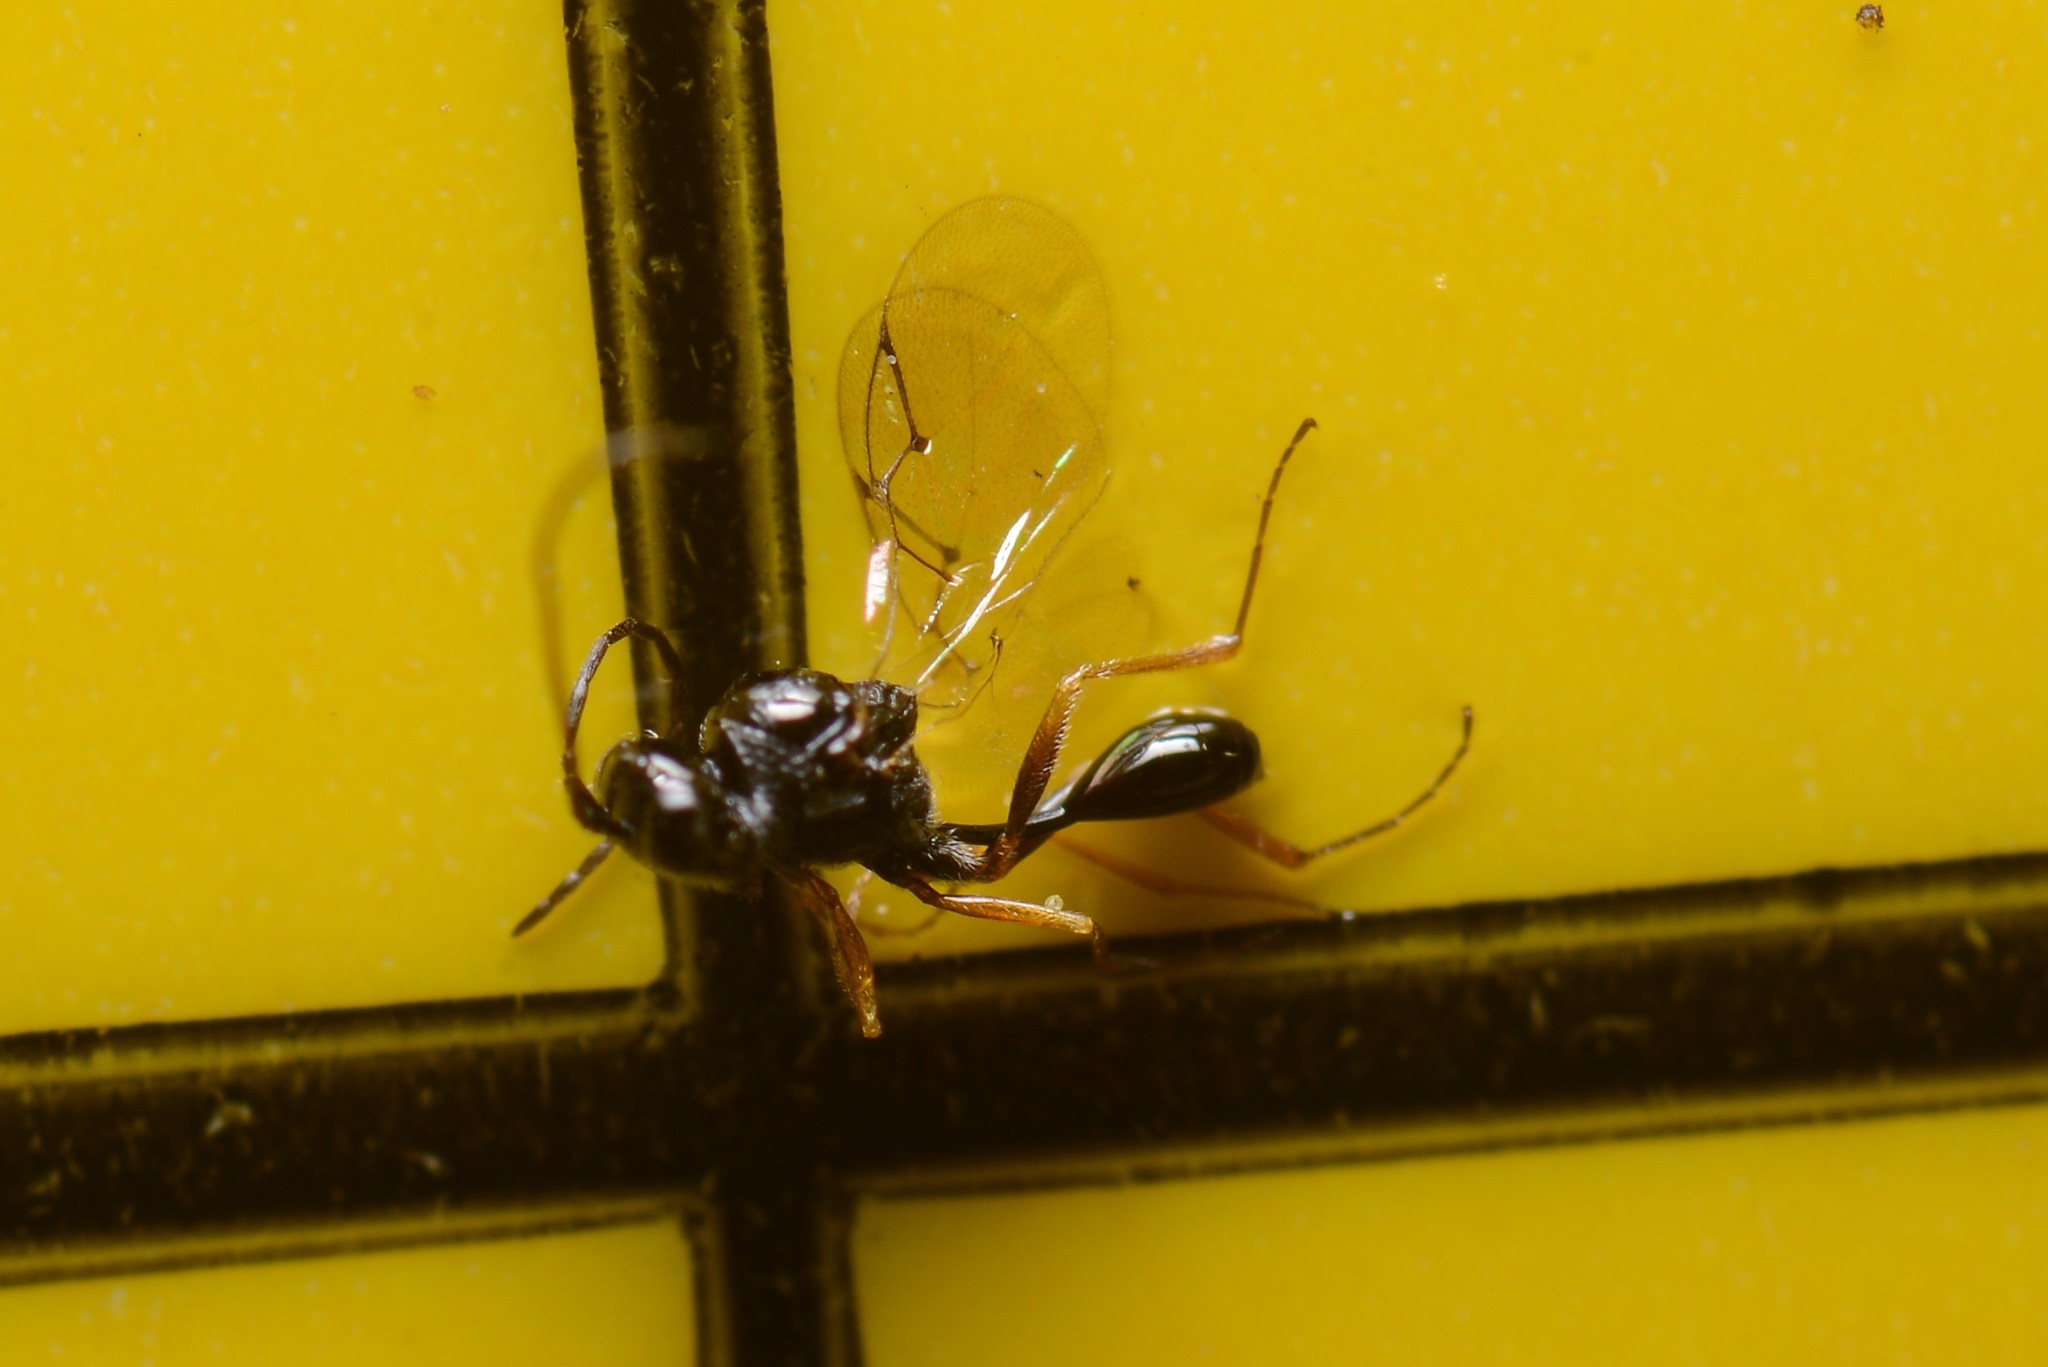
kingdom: Animalia
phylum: Arthropoda
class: Insecta
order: Hymenoptera
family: Figitidae
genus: Anacharis
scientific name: Anacharis zealandica
